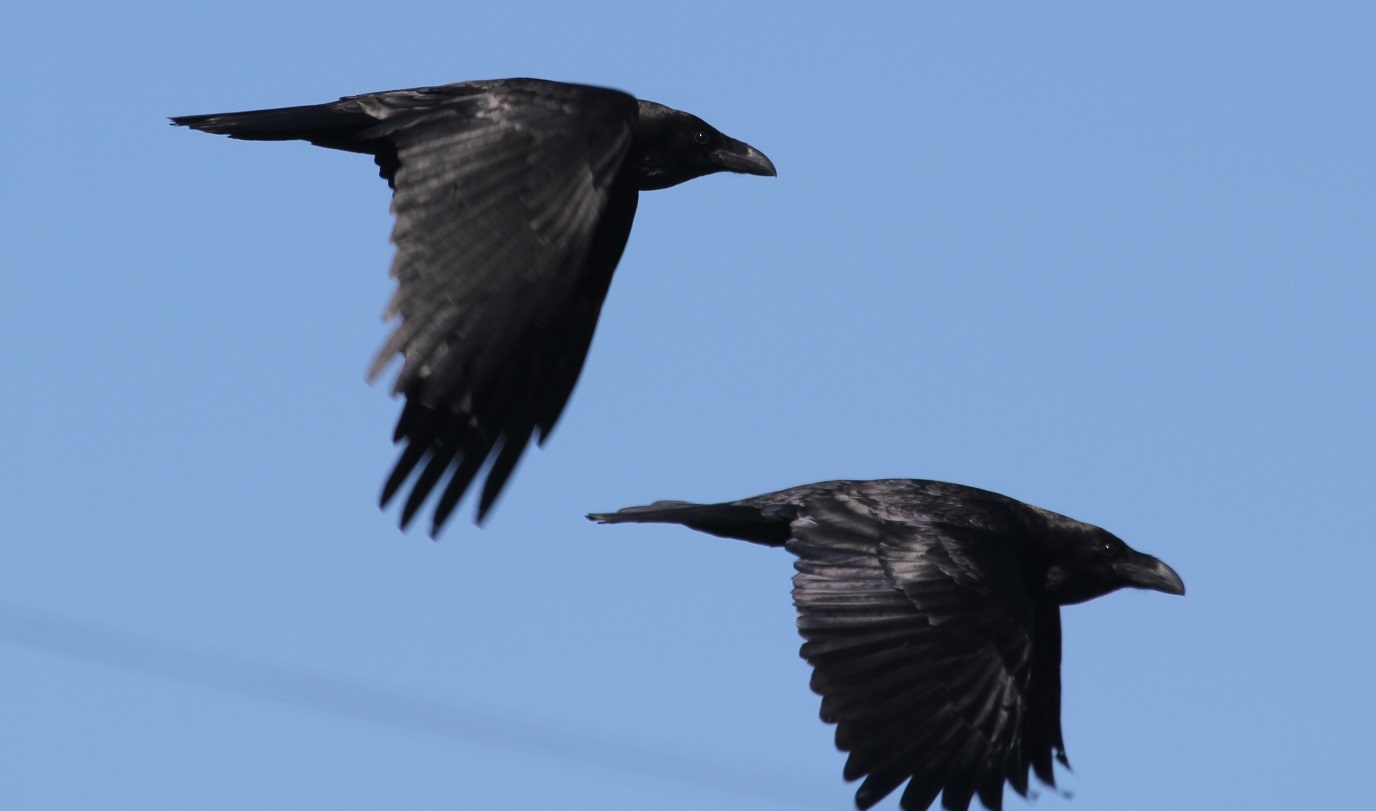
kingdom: Animalia
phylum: Chordata
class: Aves
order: Passeriformes
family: Corvidae
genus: Corvus
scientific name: Corvus corax
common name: Common raven
